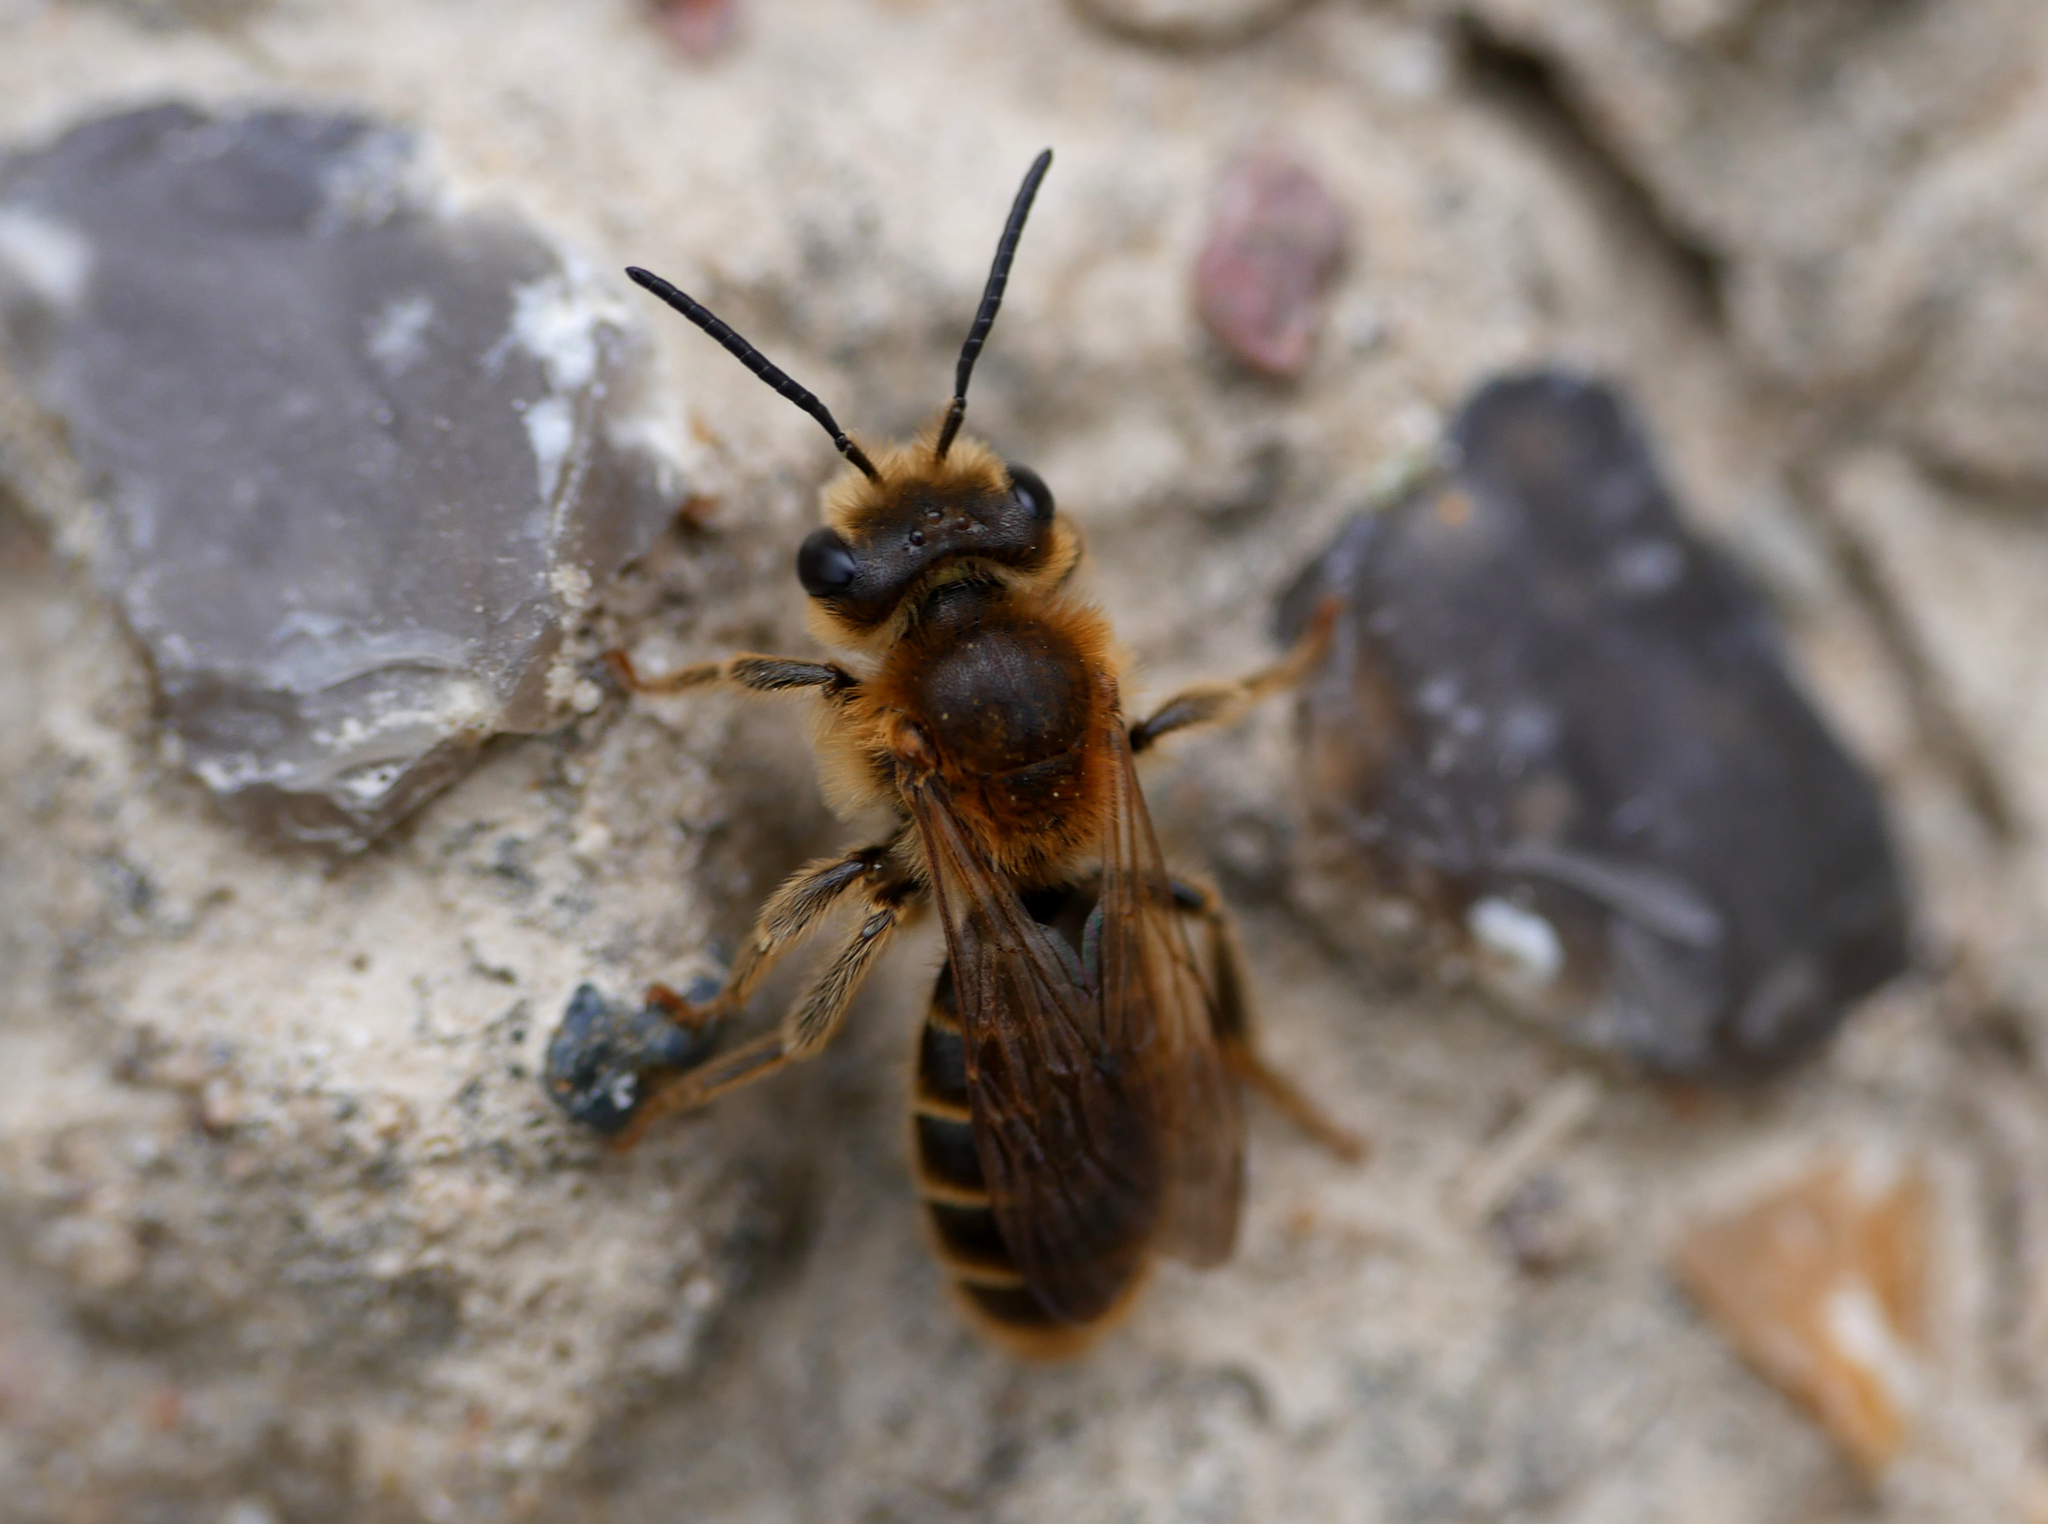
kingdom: Animalia
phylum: Arthropoda
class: Insecta
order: Hymenoptera
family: Andrenidae
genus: Andrena
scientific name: Andrena labialis
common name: Large meadow mining bee
